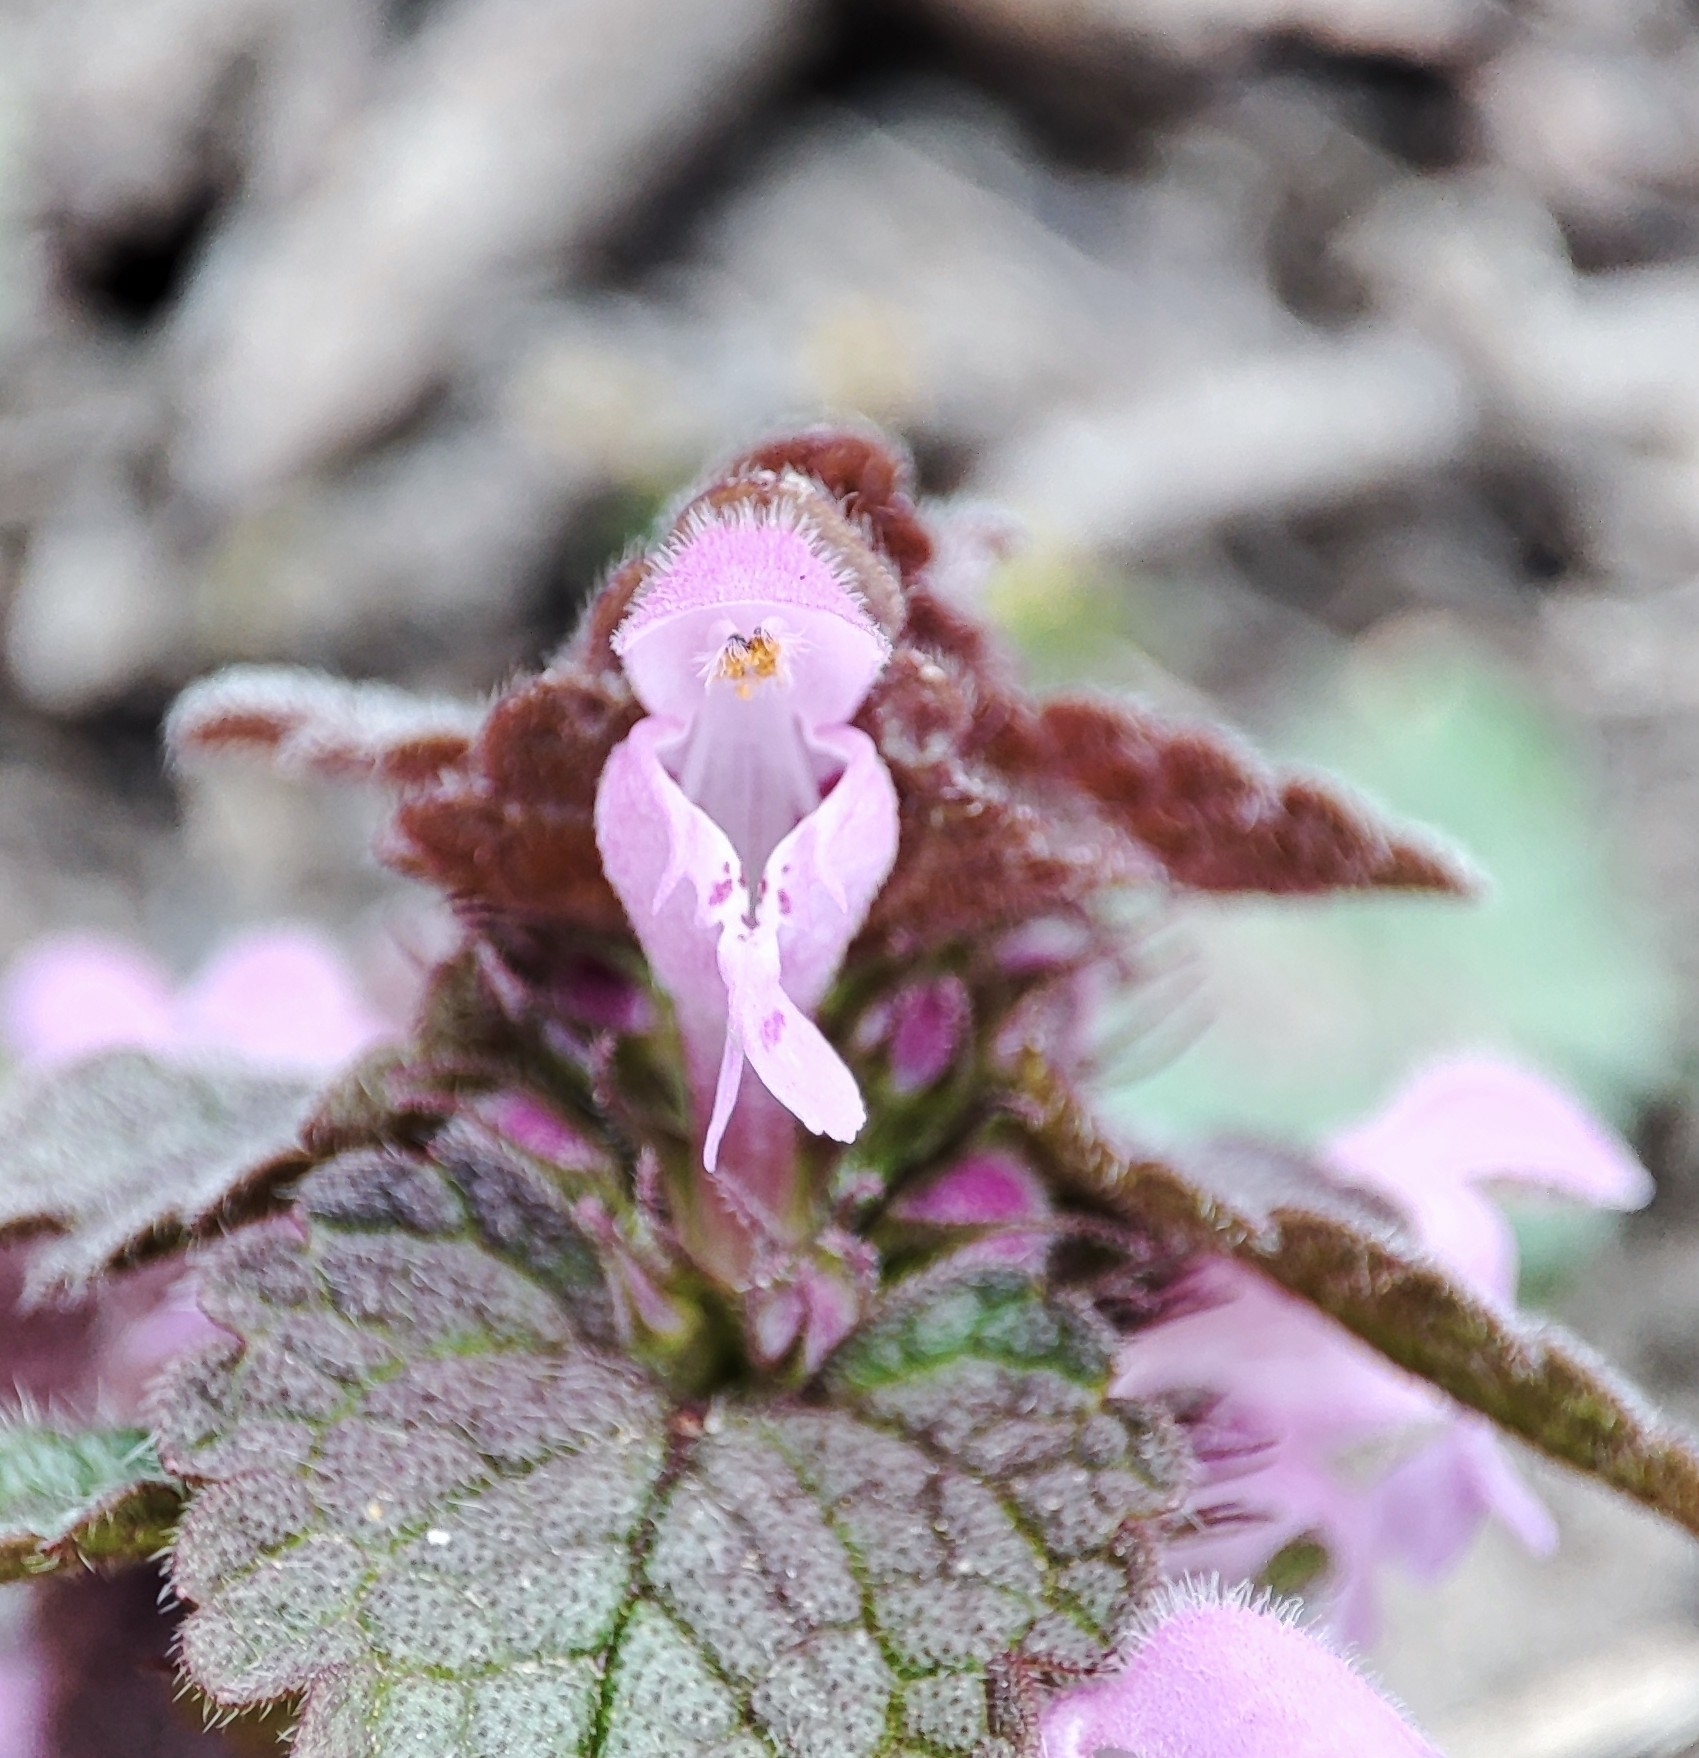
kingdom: Plantae
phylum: Tracheophyta
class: Magnoliopsida
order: Lamiales
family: Lamiaceae
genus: Lamium
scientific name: Lamium purpureum
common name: Red dead-nettle
